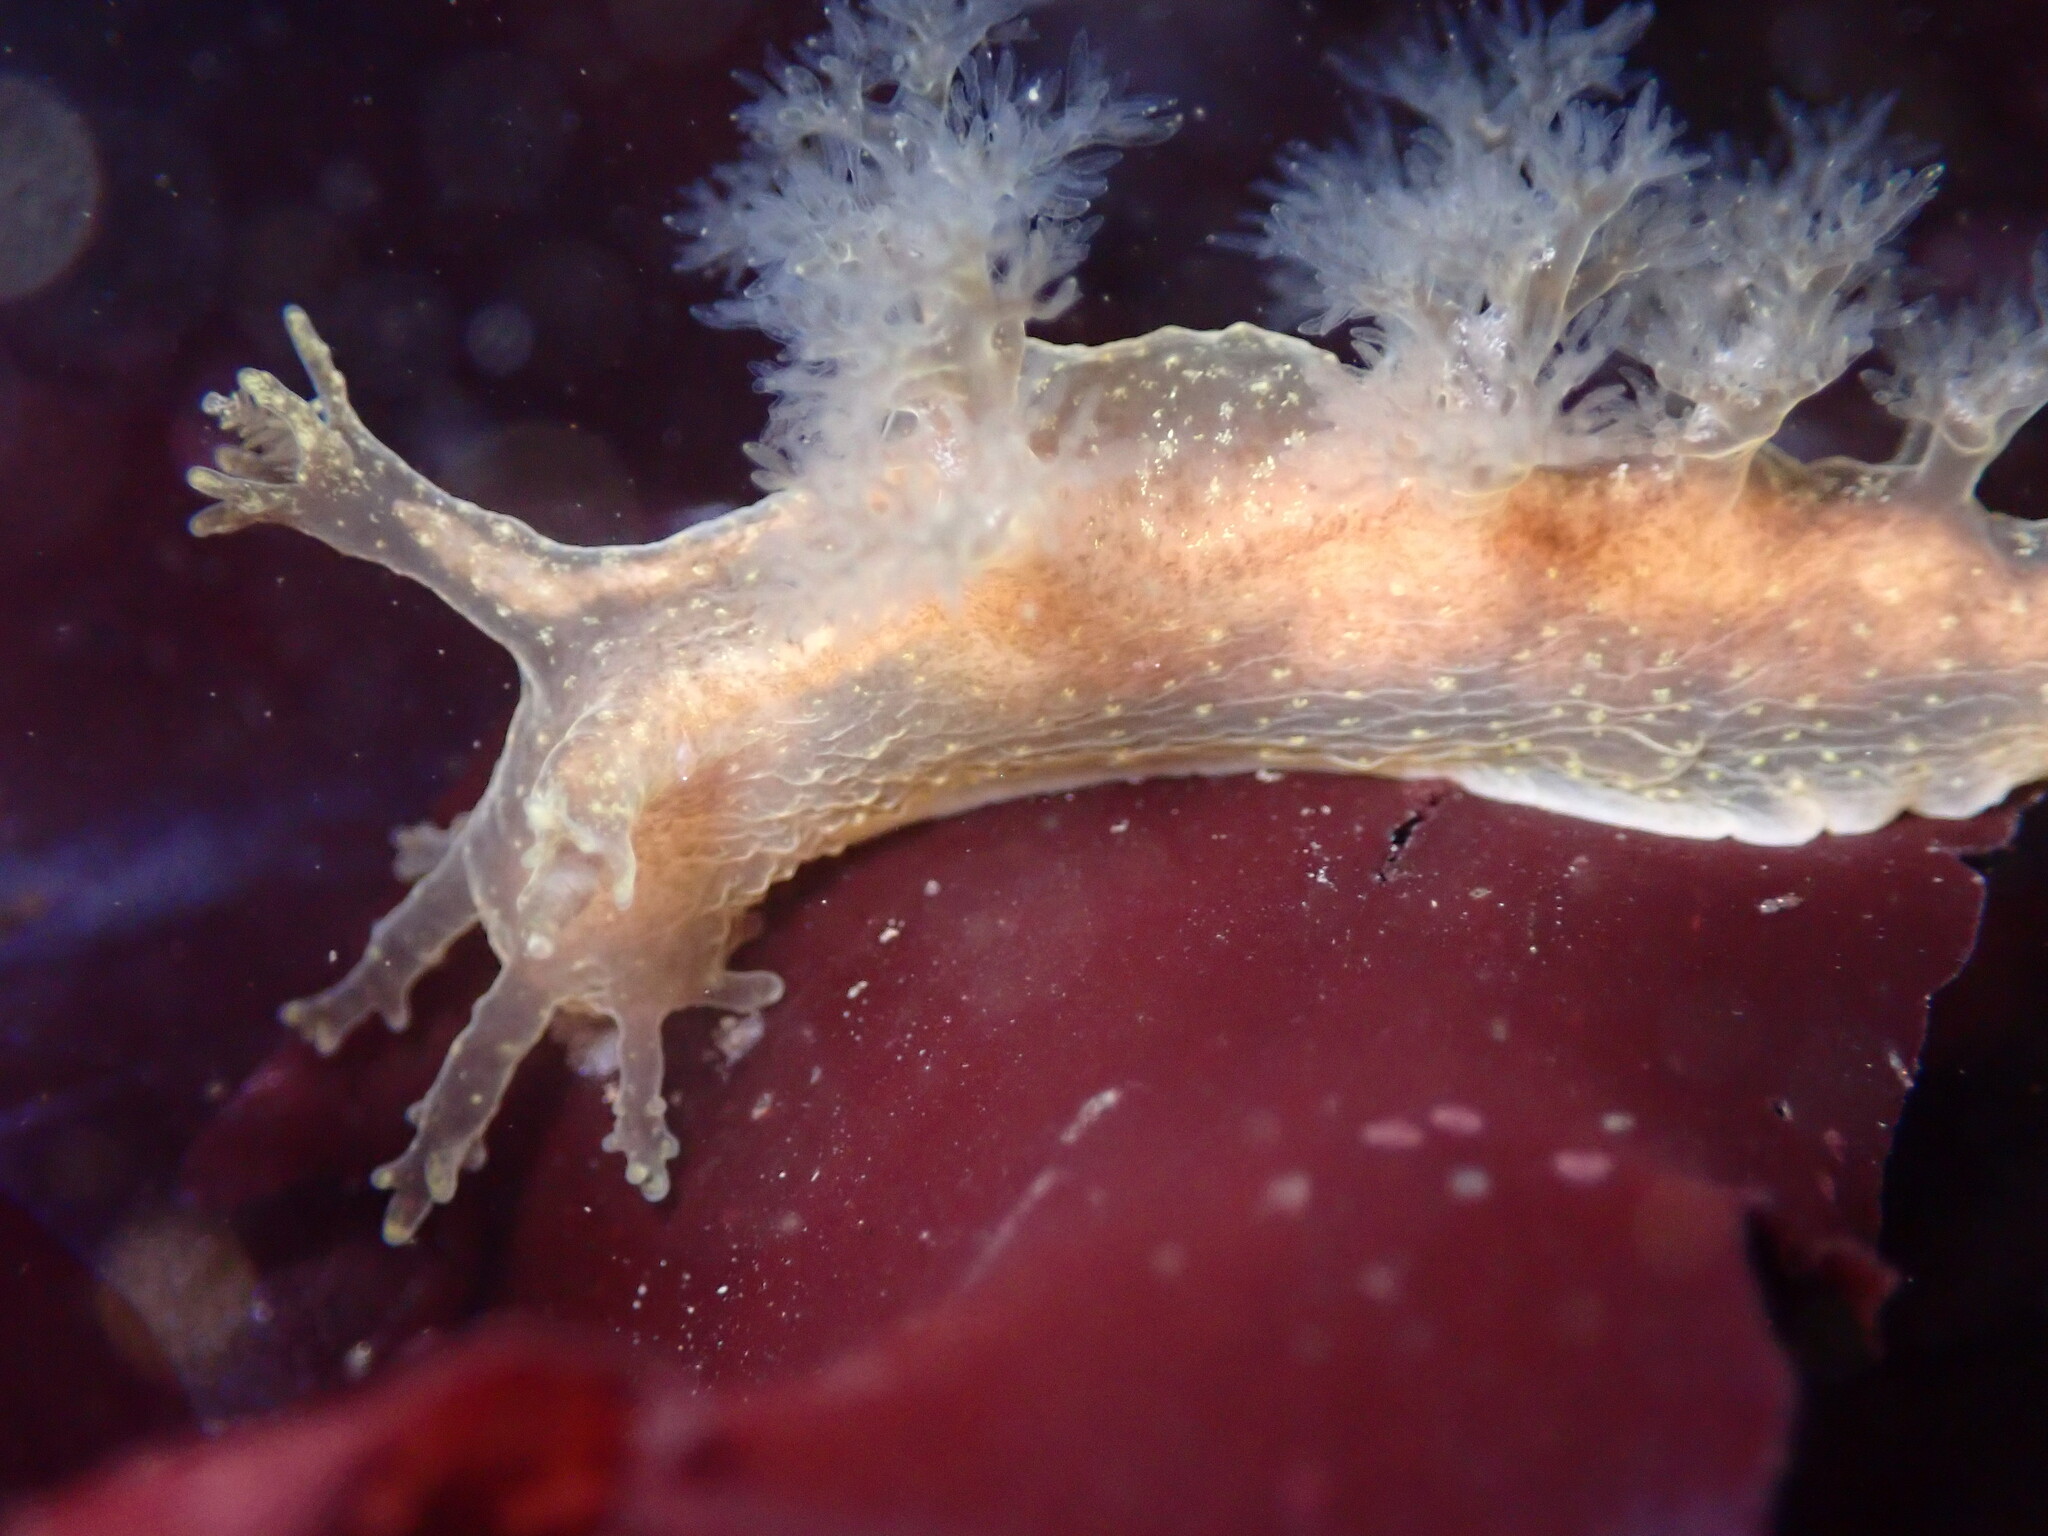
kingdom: Animalia
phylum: Mollusca
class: Gastropoda
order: Nudibranchia
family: Dendronotidae
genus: Dendronotus
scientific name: Dendronotus subramosus
